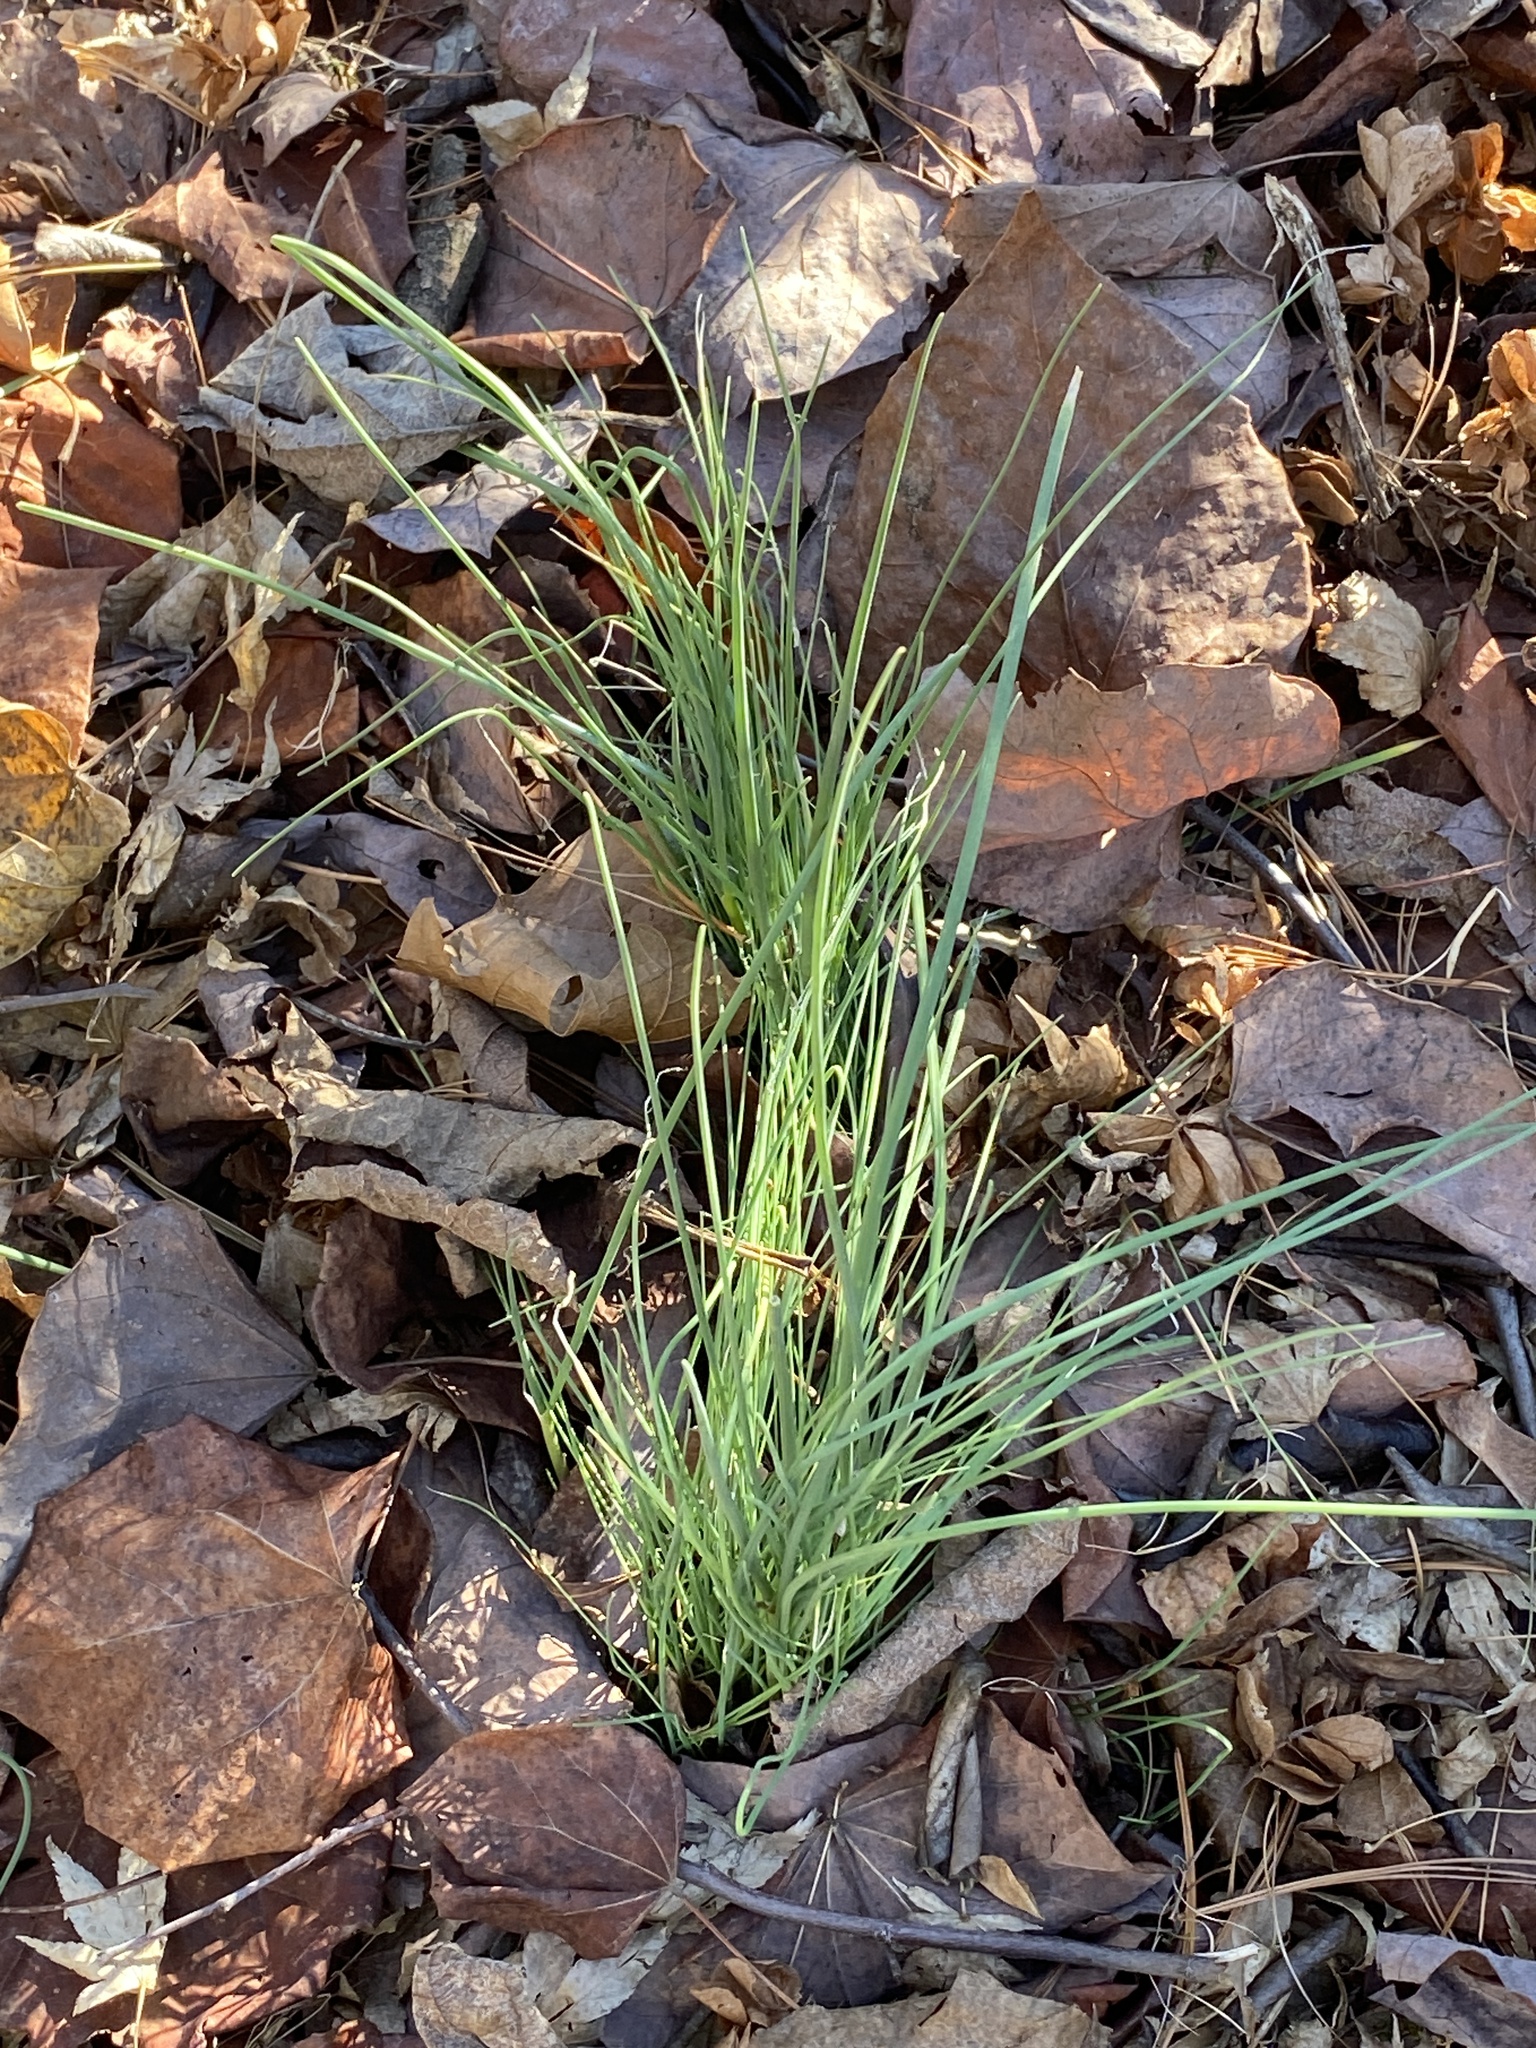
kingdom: Plantae
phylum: Tracheophyta
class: Liliopsida
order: Asparagales
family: Amaryllidaceae
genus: Allium
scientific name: Allium vineale
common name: Crow garlic
